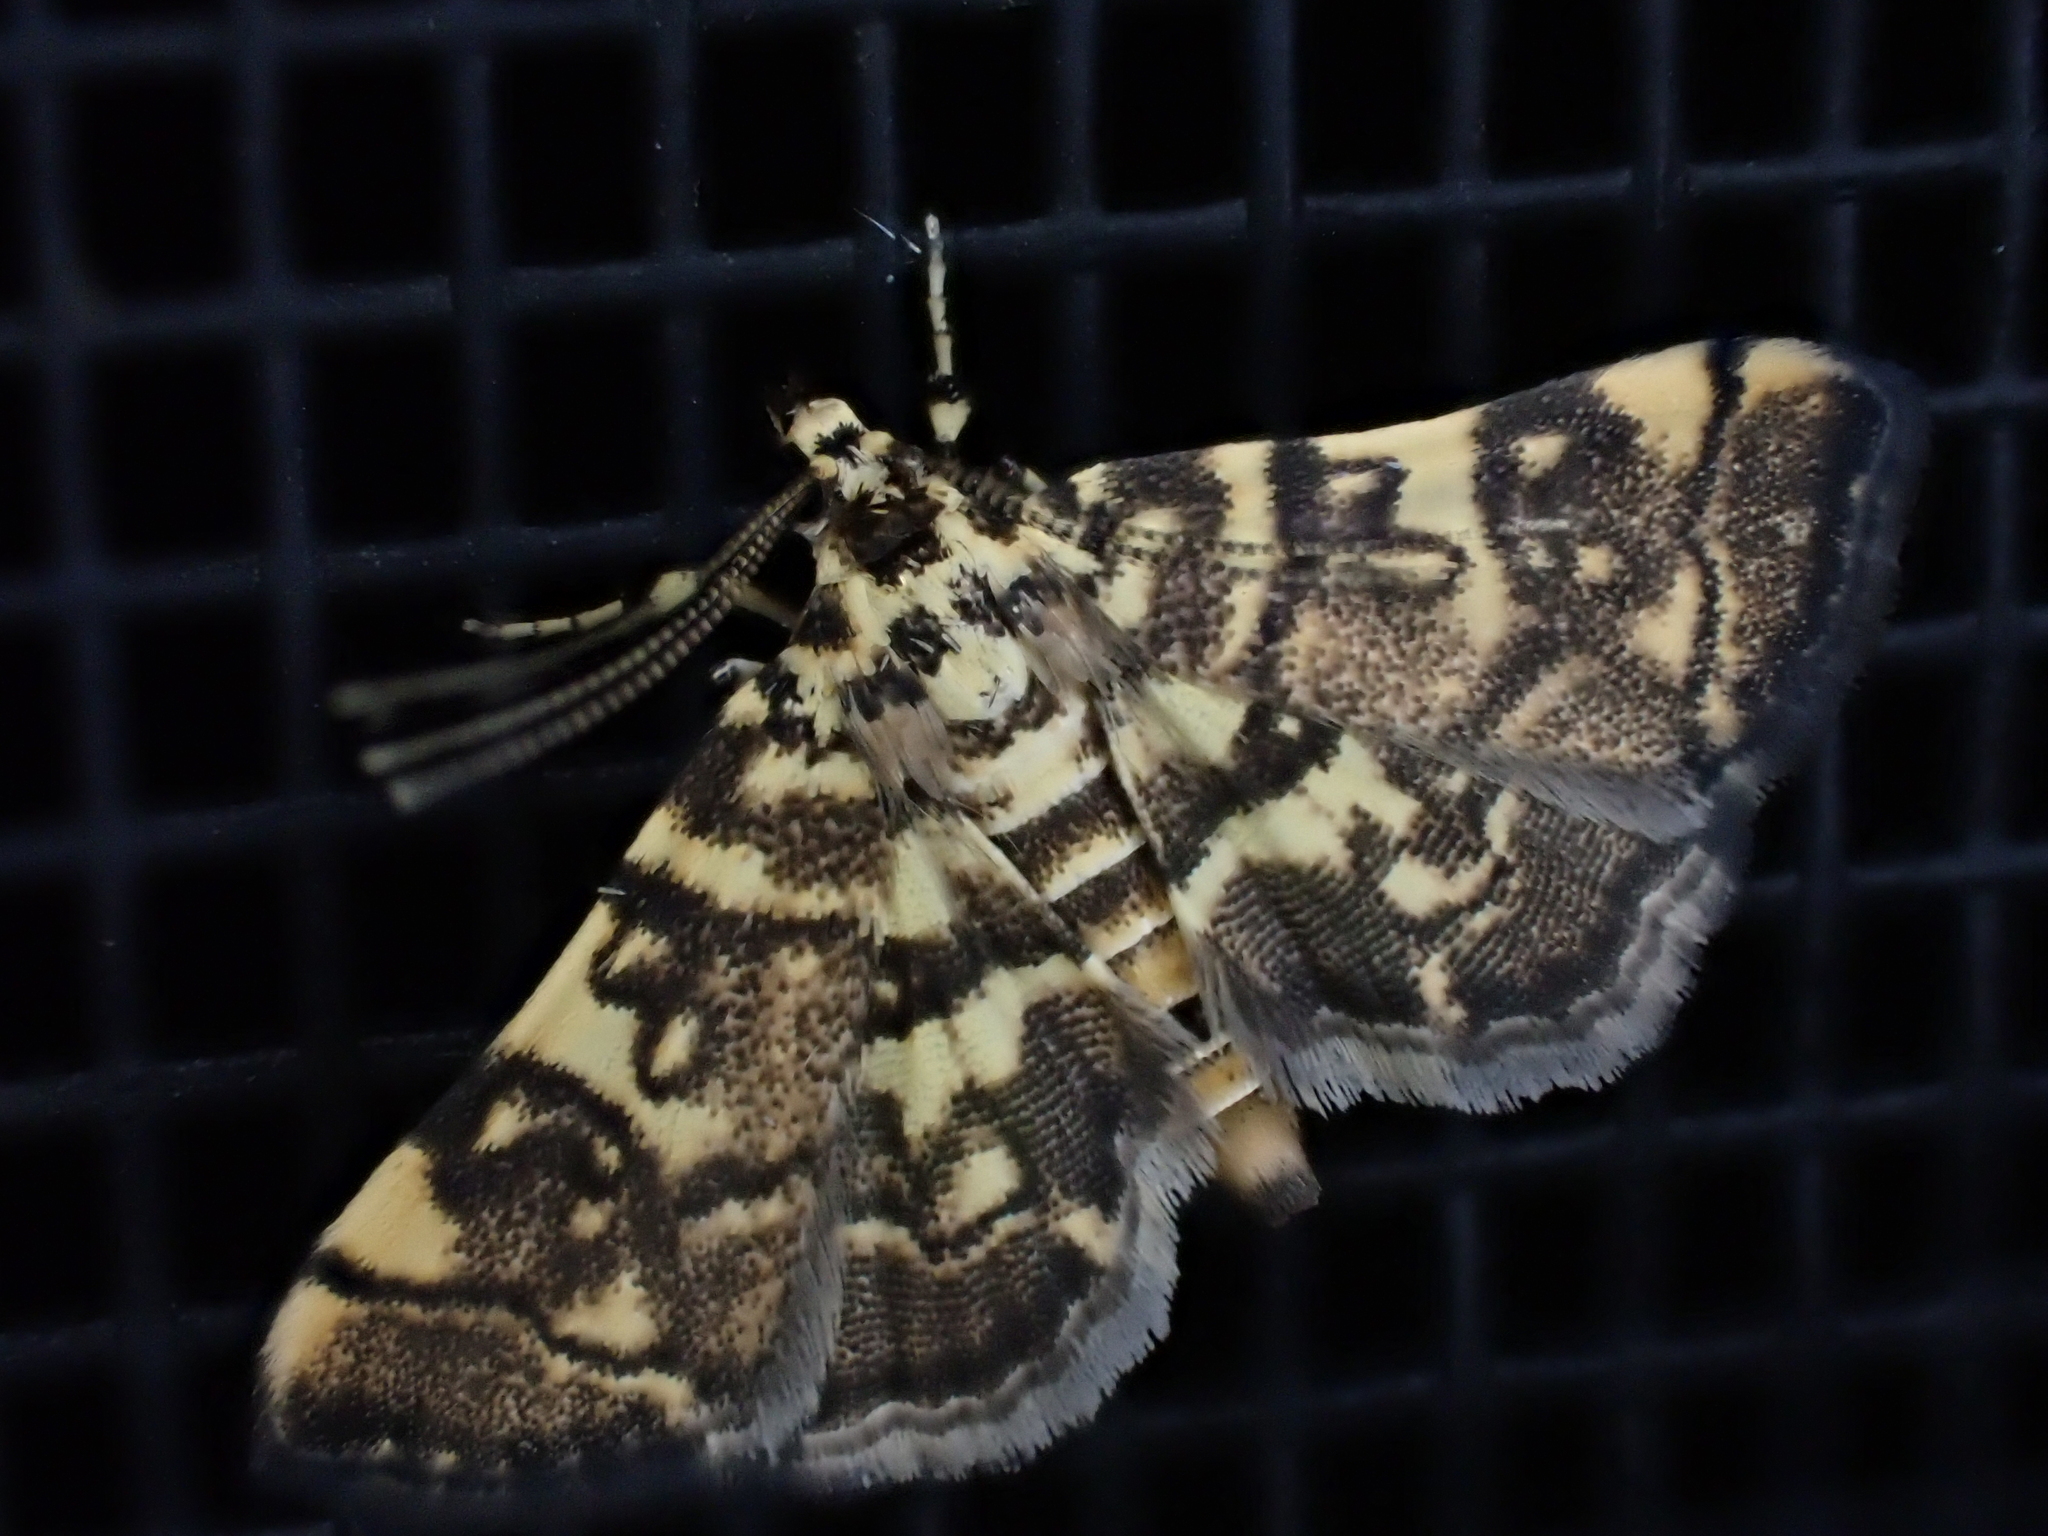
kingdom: Animalia
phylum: Arthropoda
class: Insecta
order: Lepidoptera
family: Crambidae
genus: Apogeshna
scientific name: Apogeshna stenialis
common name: Checkered apogeshna moth
